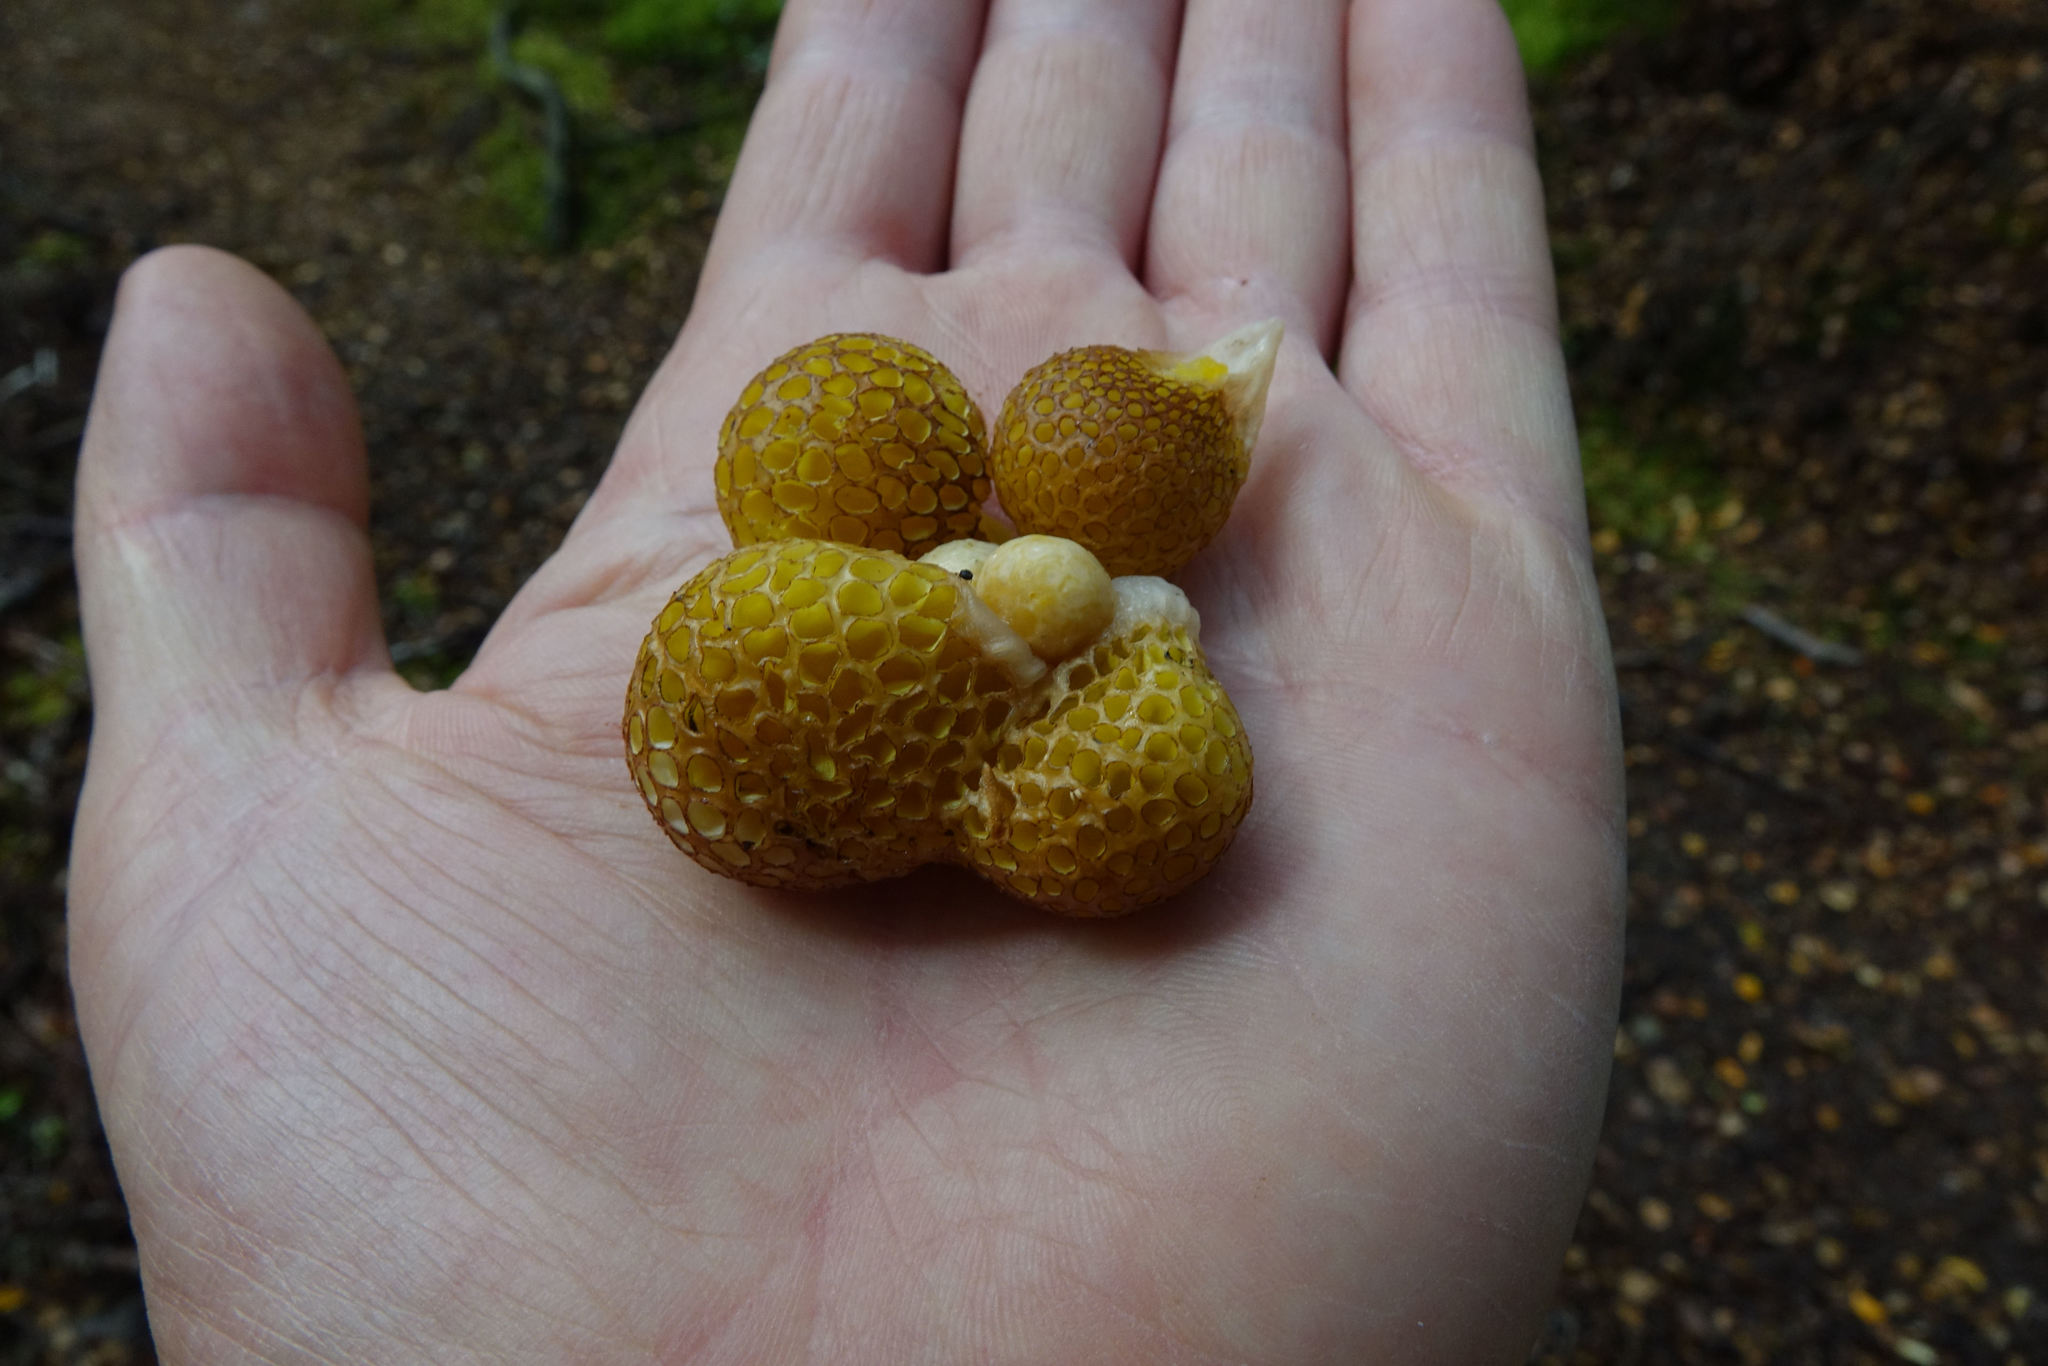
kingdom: Fungi
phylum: Ascomycota
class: Leotiomycetes
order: Cyttariales
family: Cyttariaceae
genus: Cyttaria
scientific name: Cyttaria gunnii
